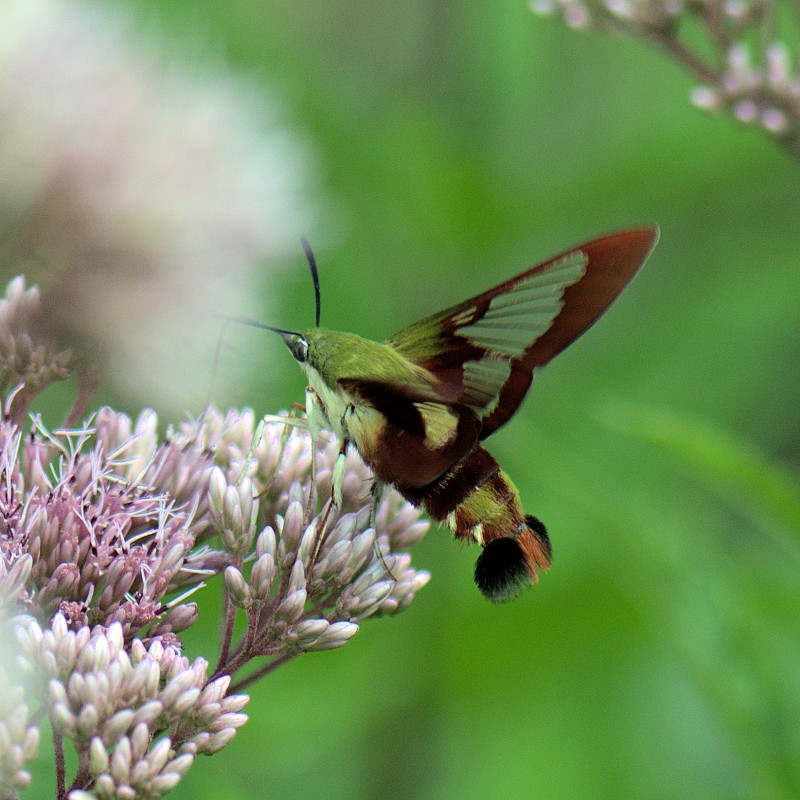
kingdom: Animalia
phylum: Arthropoda
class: Insecta
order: Lepidoptera
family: Sphingidae
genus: Hemaris
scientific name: Hemaris thysbe
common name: Common clear-wing
